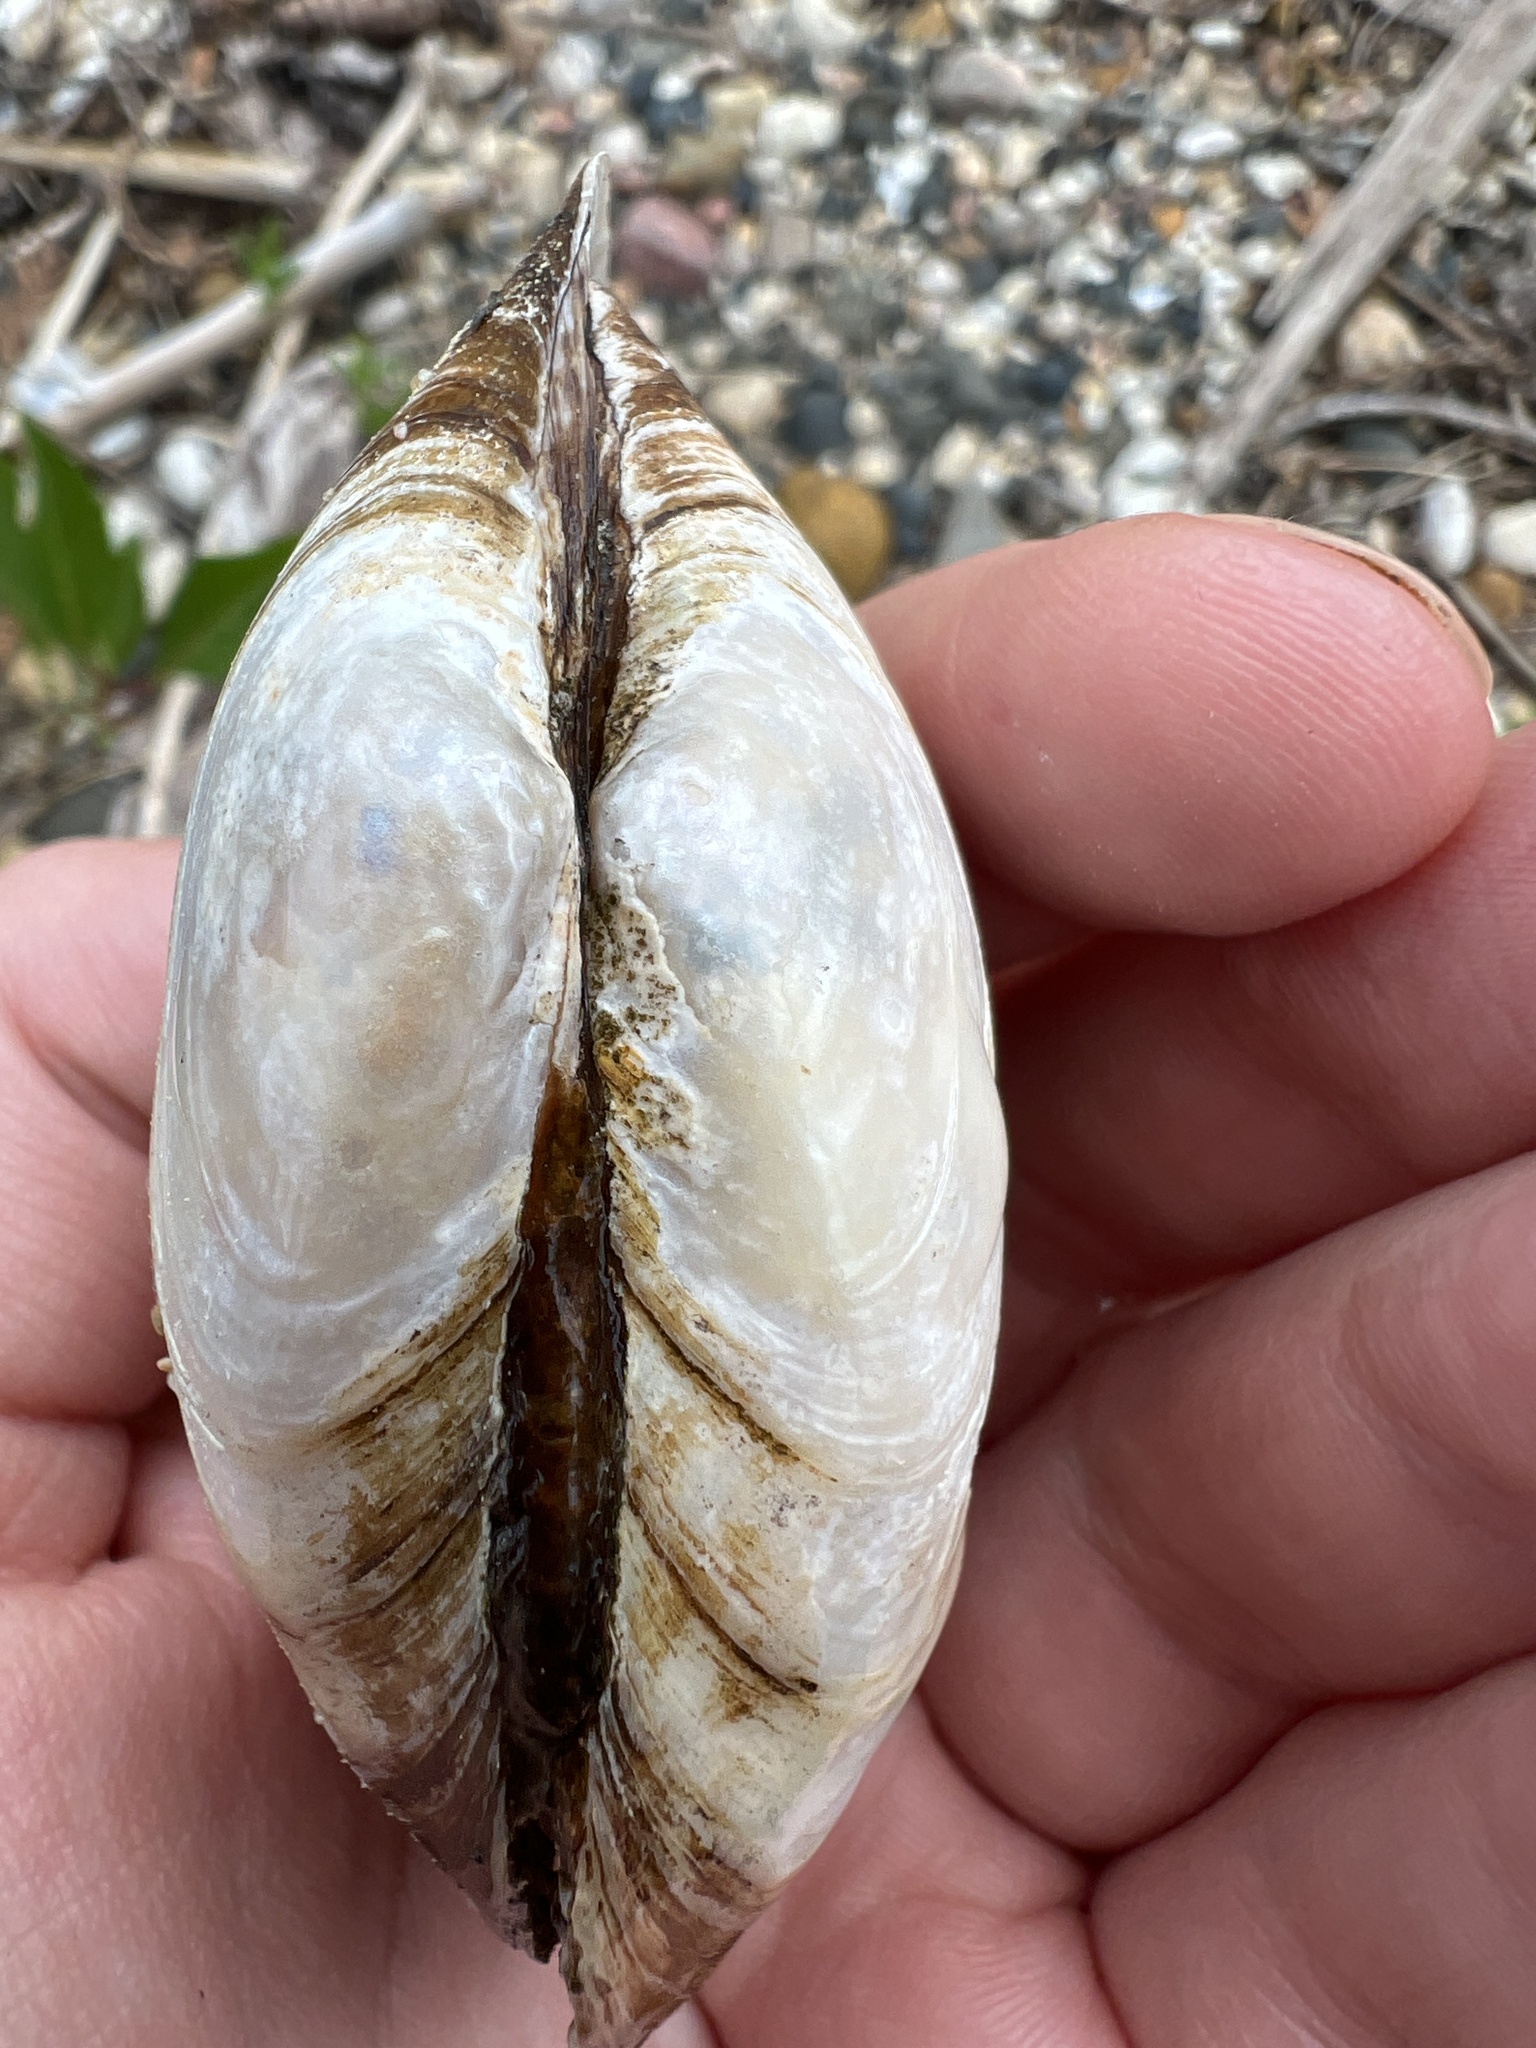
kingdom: Animalia
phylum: Mollusca
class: Bivalvia
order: Unionida
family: Unionidae
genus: Pyganodon
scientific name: Pyganodon grandis
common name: Giant floater
